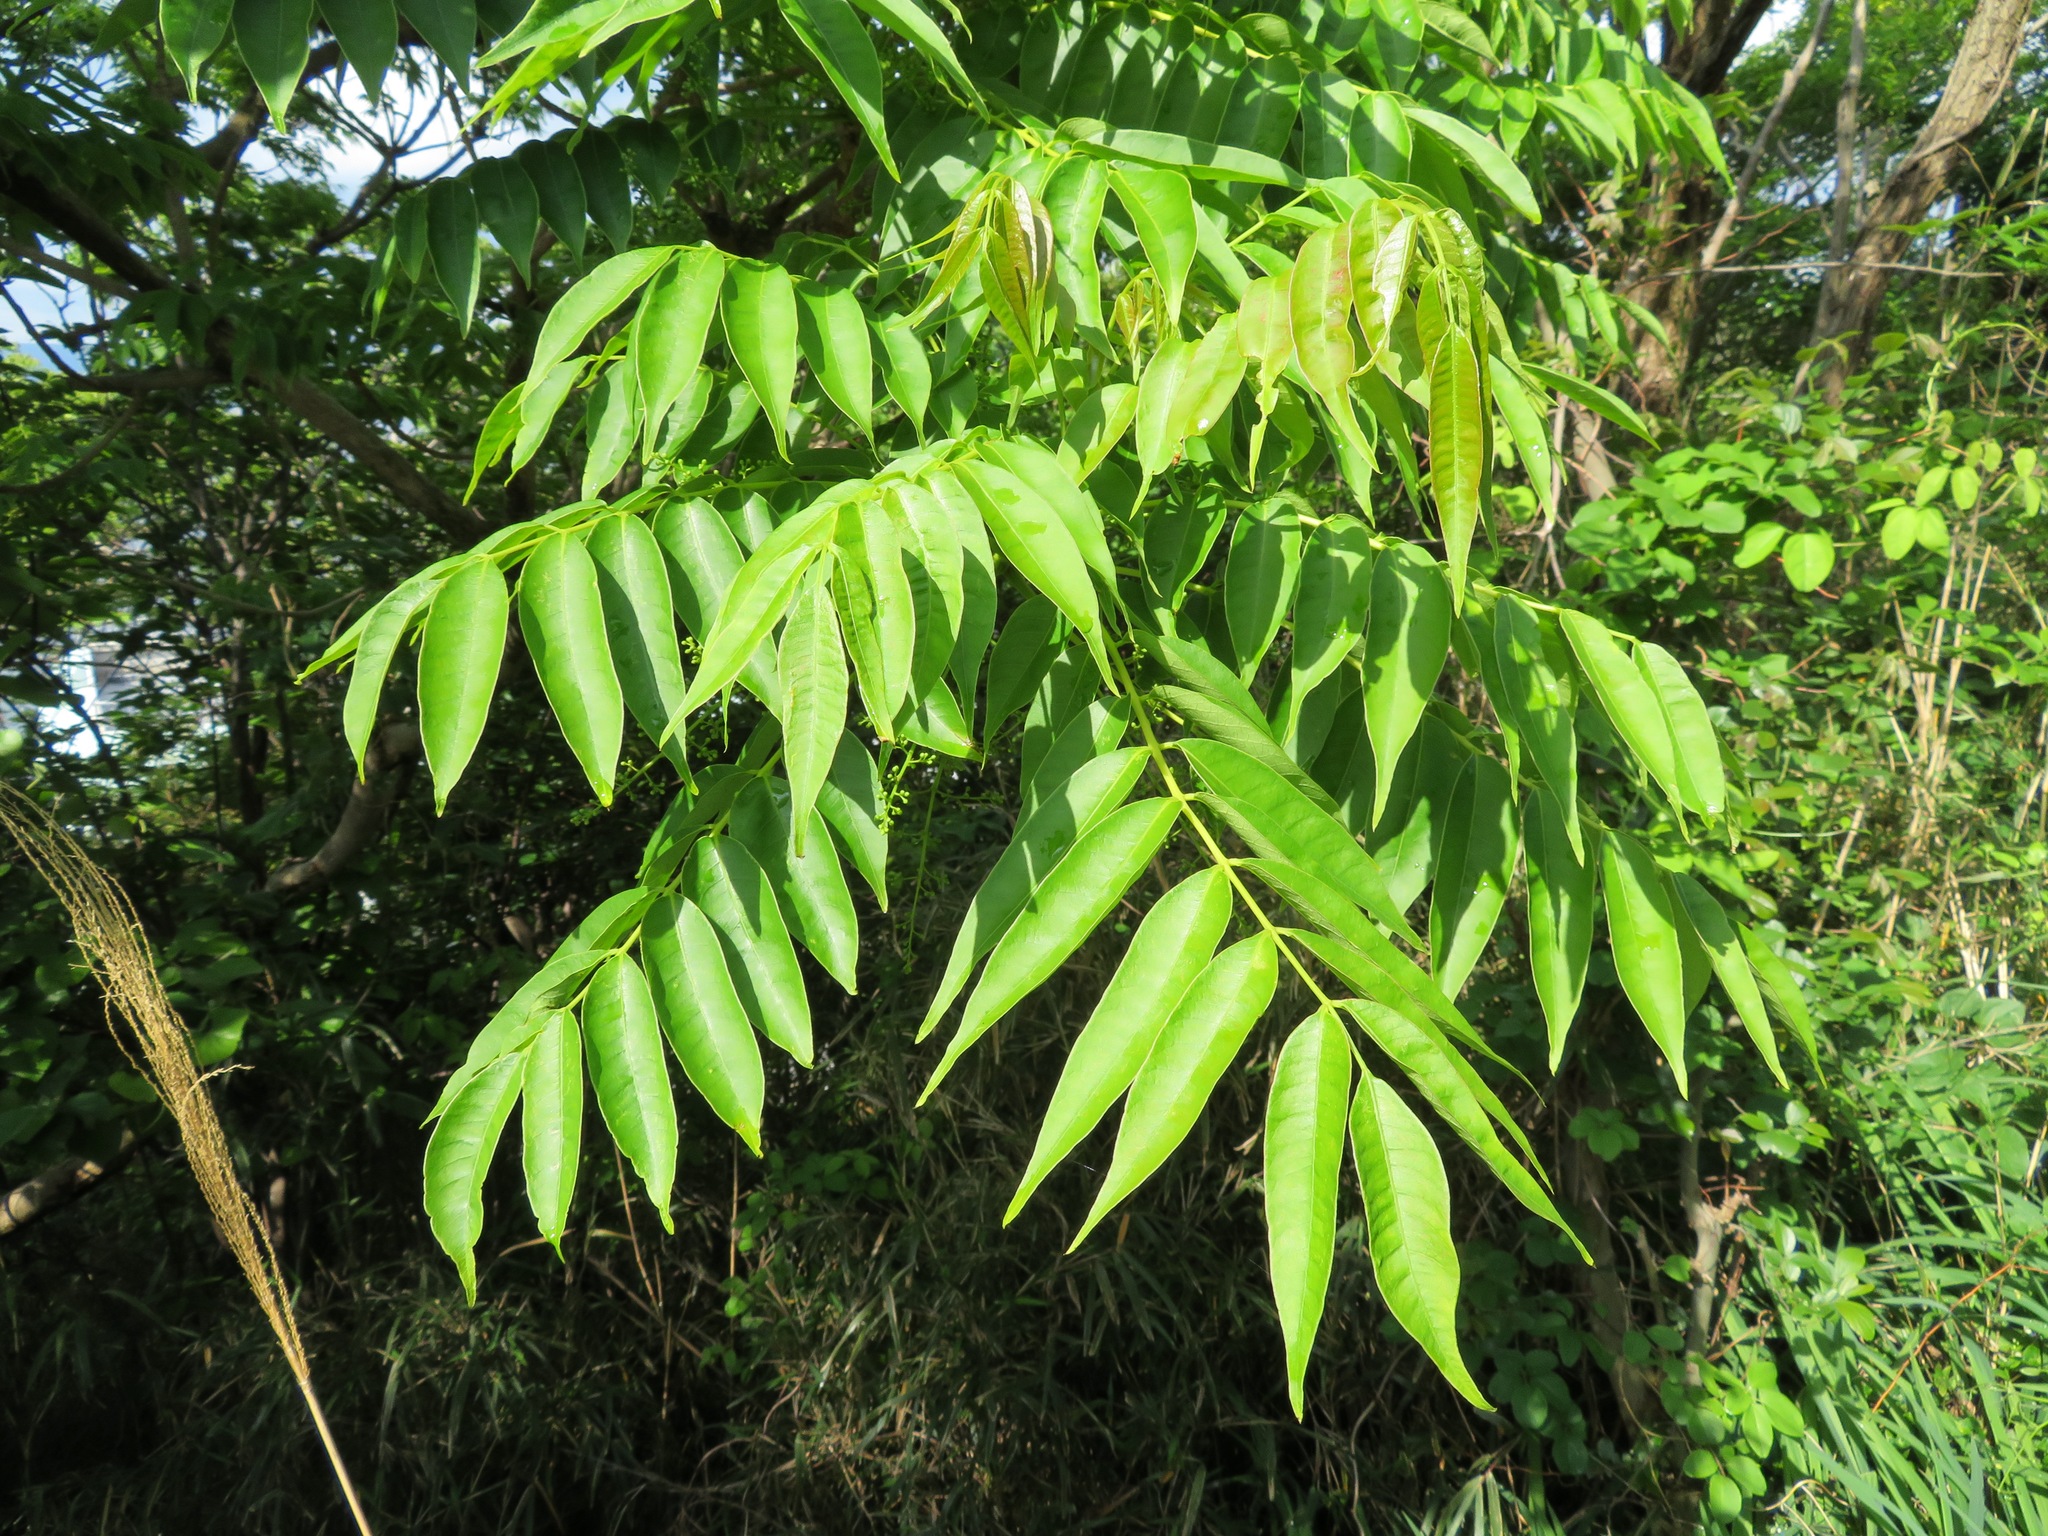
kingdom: Plantae
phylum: Tracheophyta
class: Magnoliopsida
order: Sapindales
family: Anacardiaceae
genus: Toxicodendron
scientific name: Toxicodendron succedaneum
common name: Wax tree
